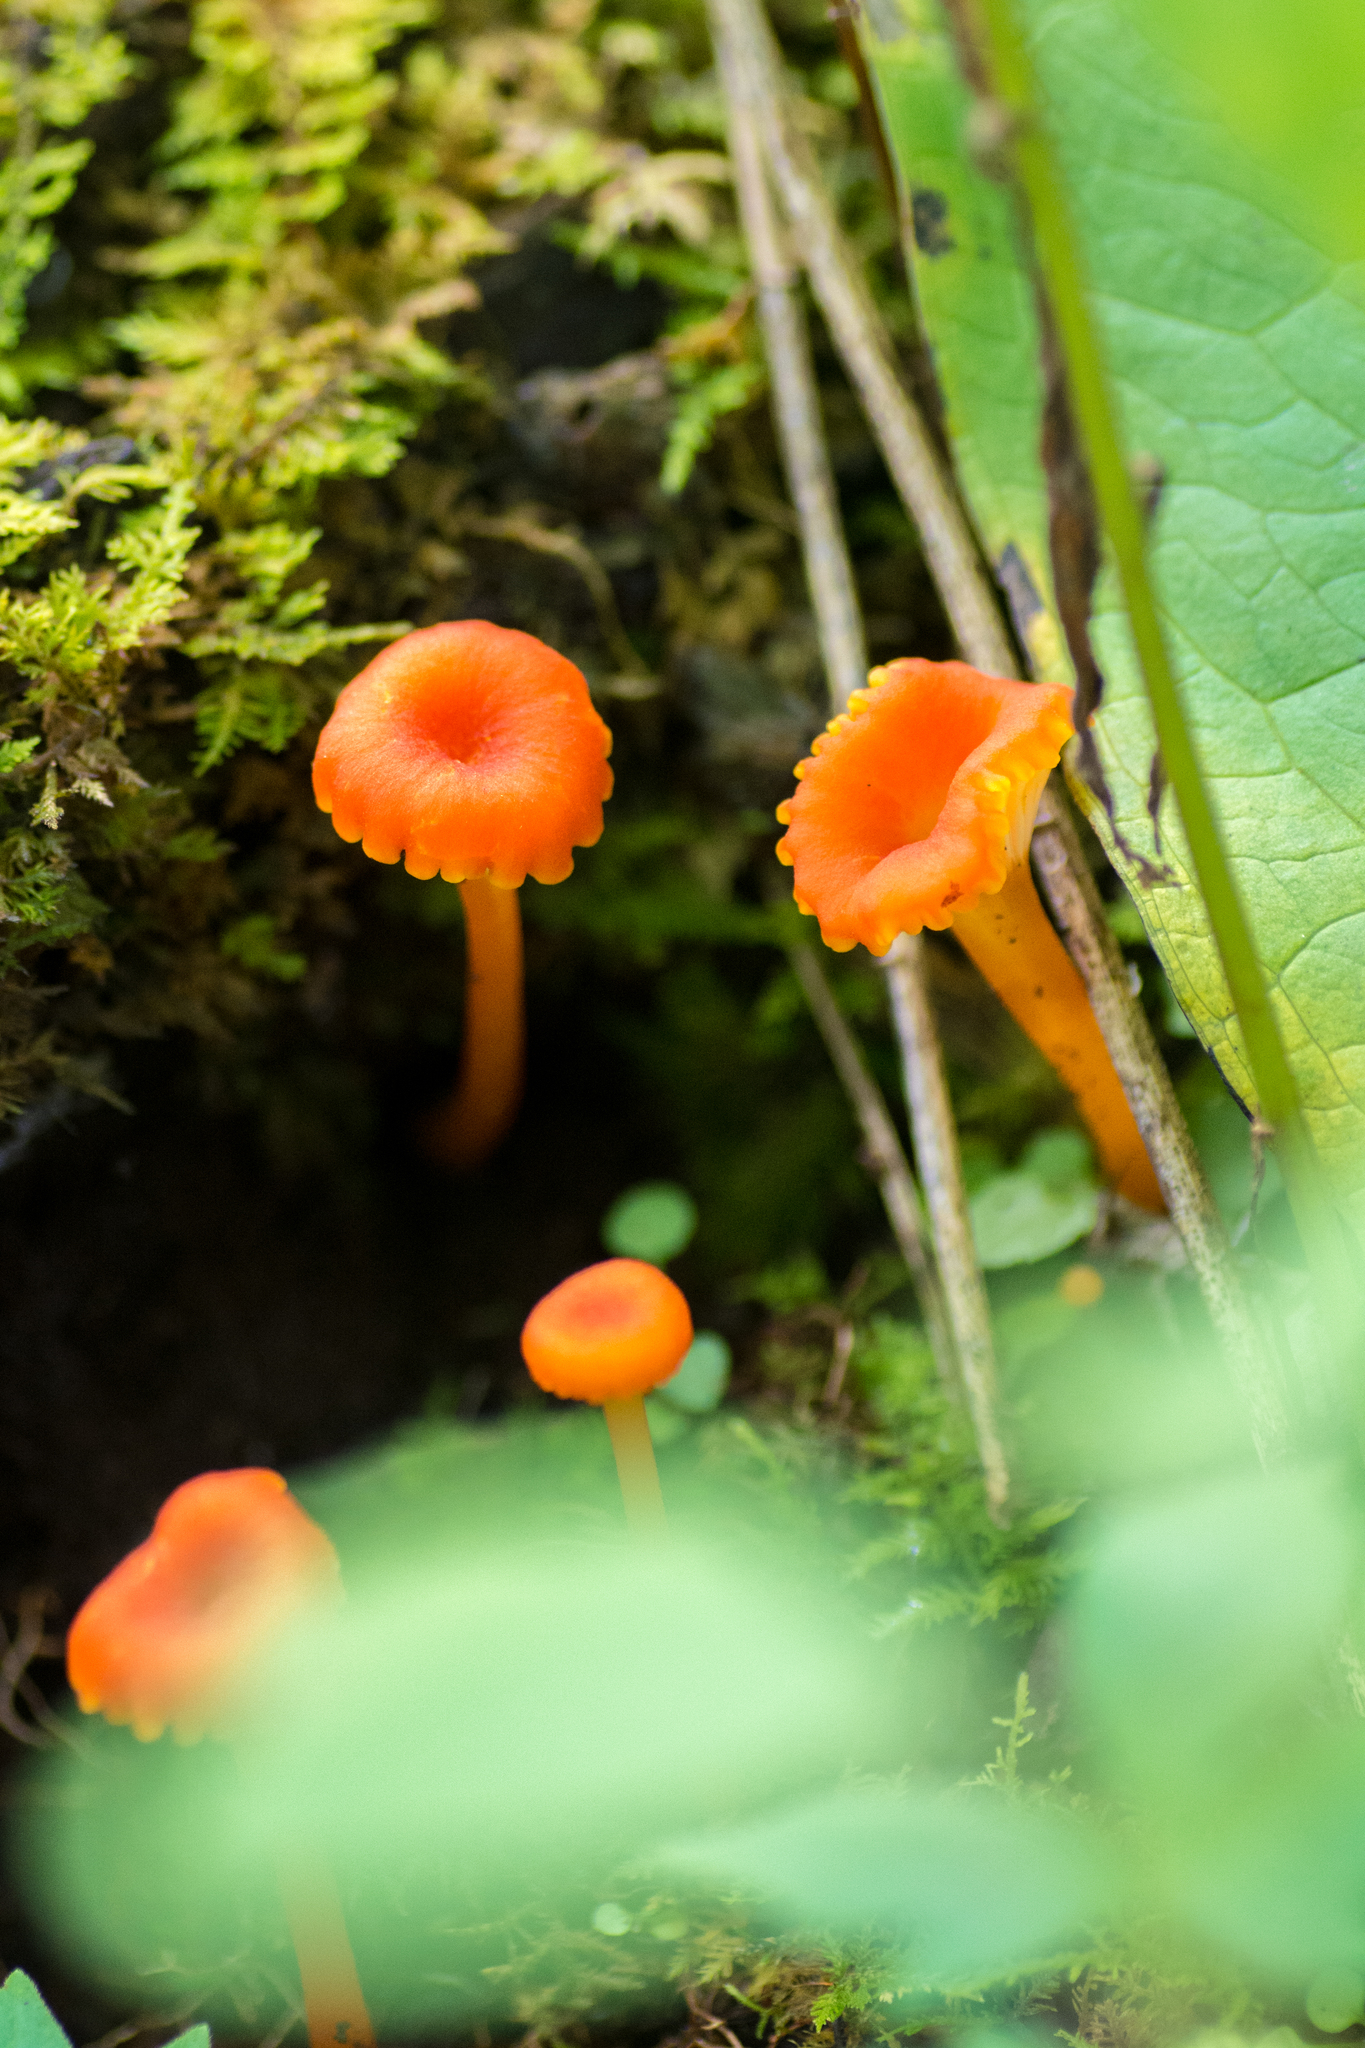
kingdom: Fungi
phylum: Basidiomycota
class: Agaricomycetes
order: Agaricales
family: Hygrophoraceae
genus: Hygrocybe
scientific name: Hygrocybe cantharellus
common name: Goblet waxcap
